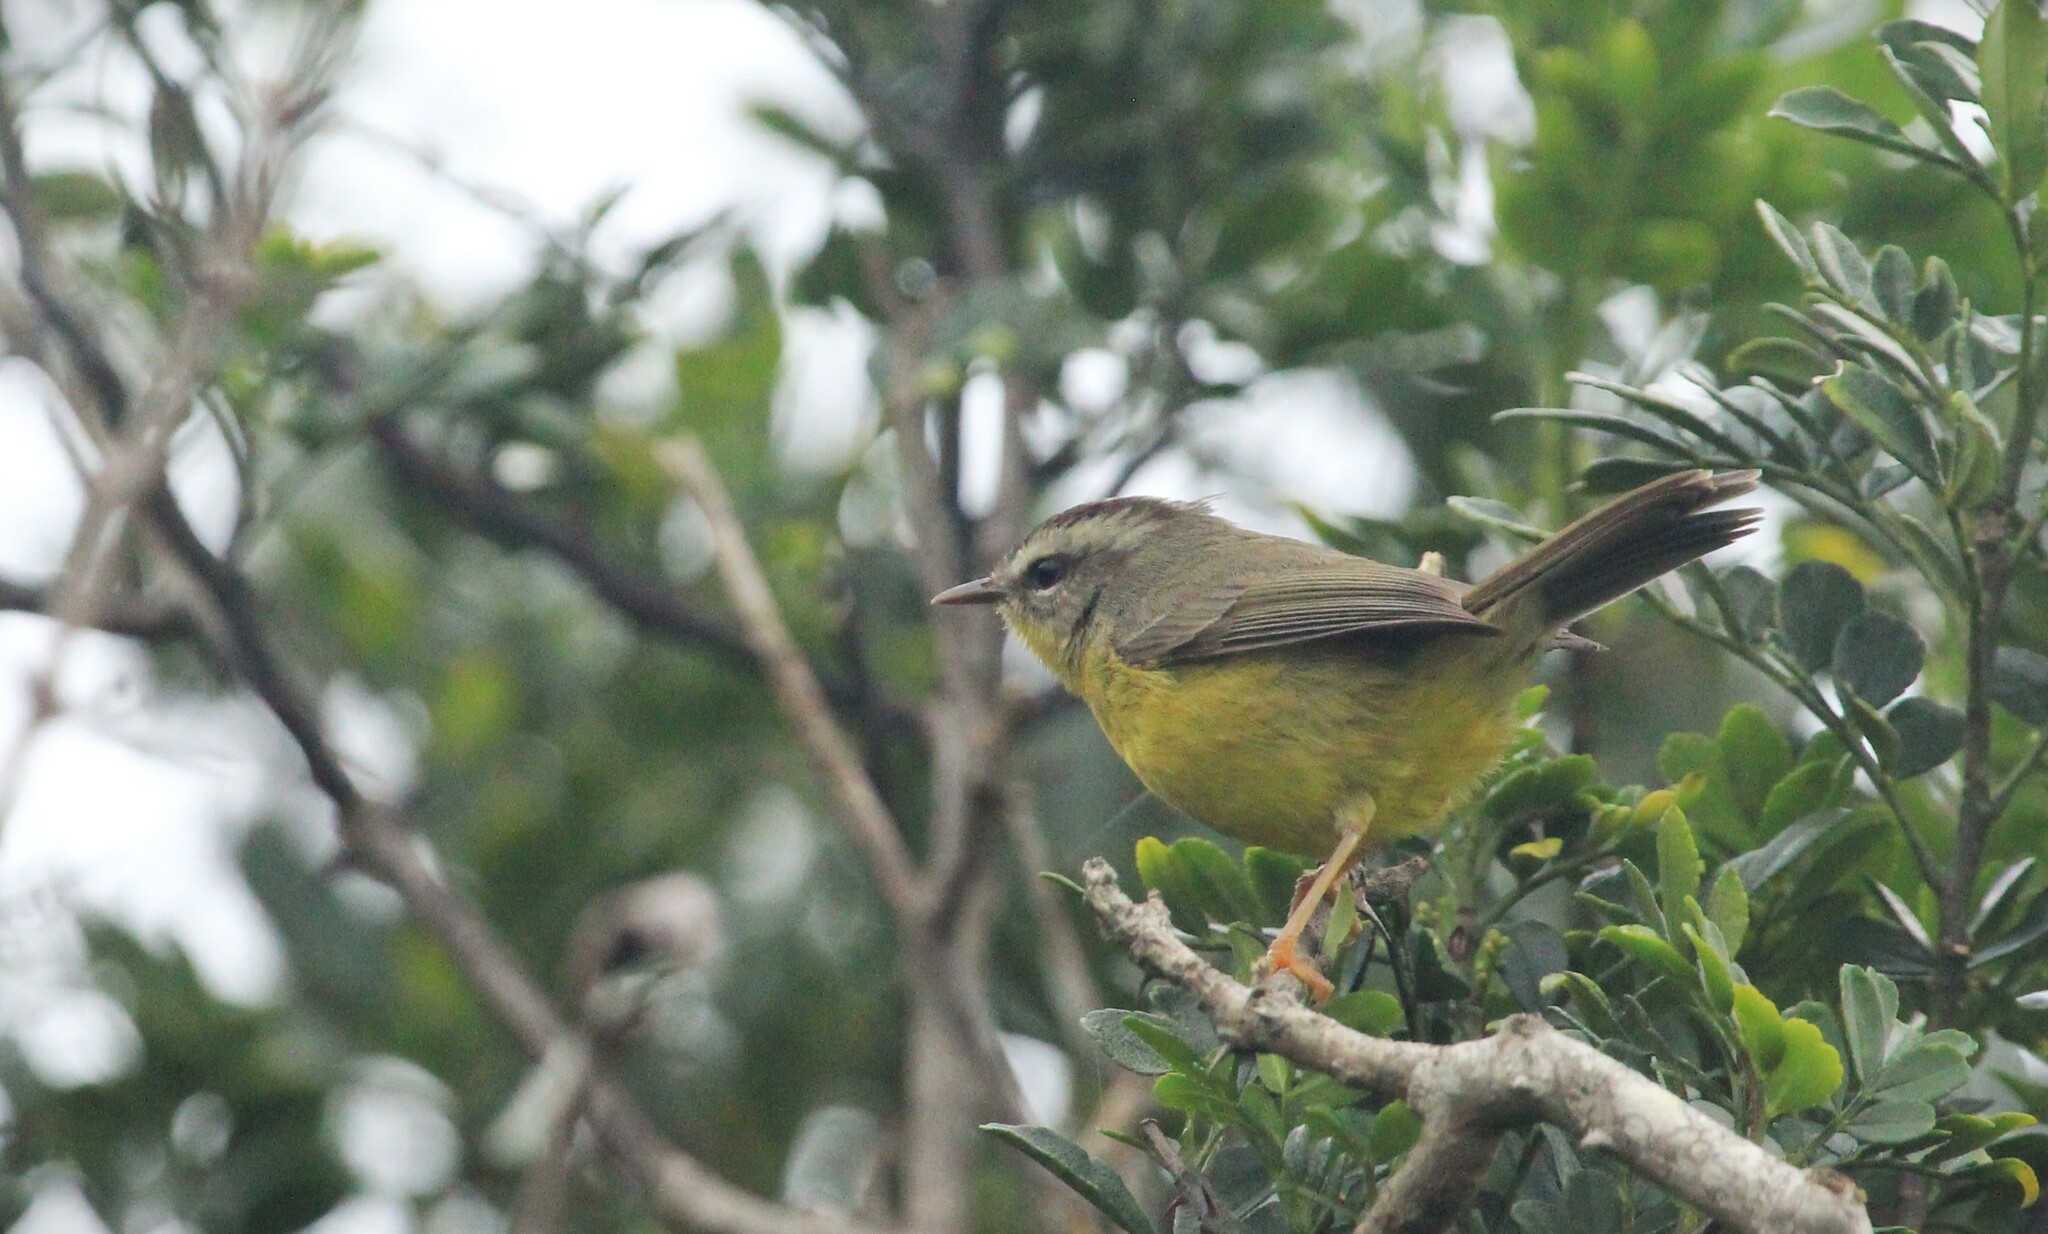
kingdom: Animalia
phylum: Chordata
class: Aves
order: Passeriformes
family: Parulidae
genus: Basileuterus
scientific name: Basileuterus culicivorus
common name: Golden-crowned warbler
